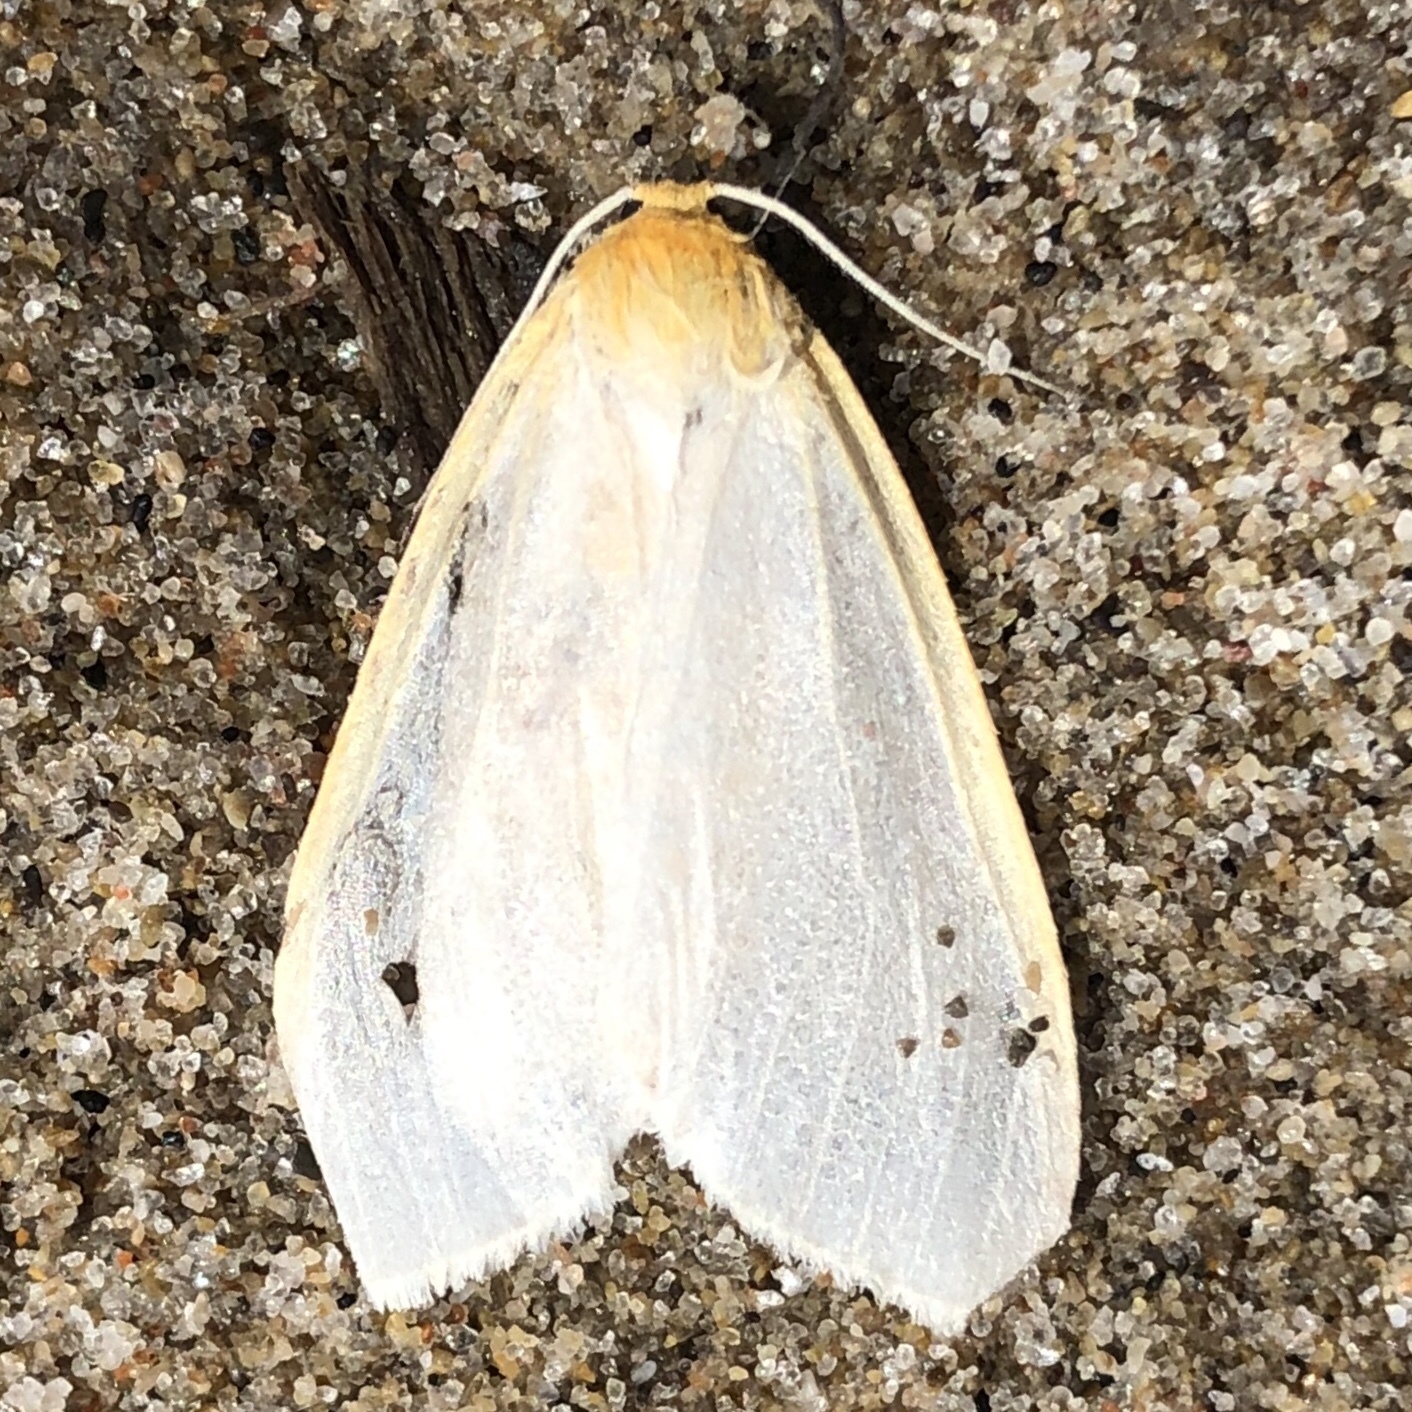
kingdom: Animalia
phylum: Arthropoda
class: Insecta
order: Lepidoptera
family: Erebidae
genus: Cycnia
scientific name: Cycnia tenera
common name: Delicate cycnia moth
